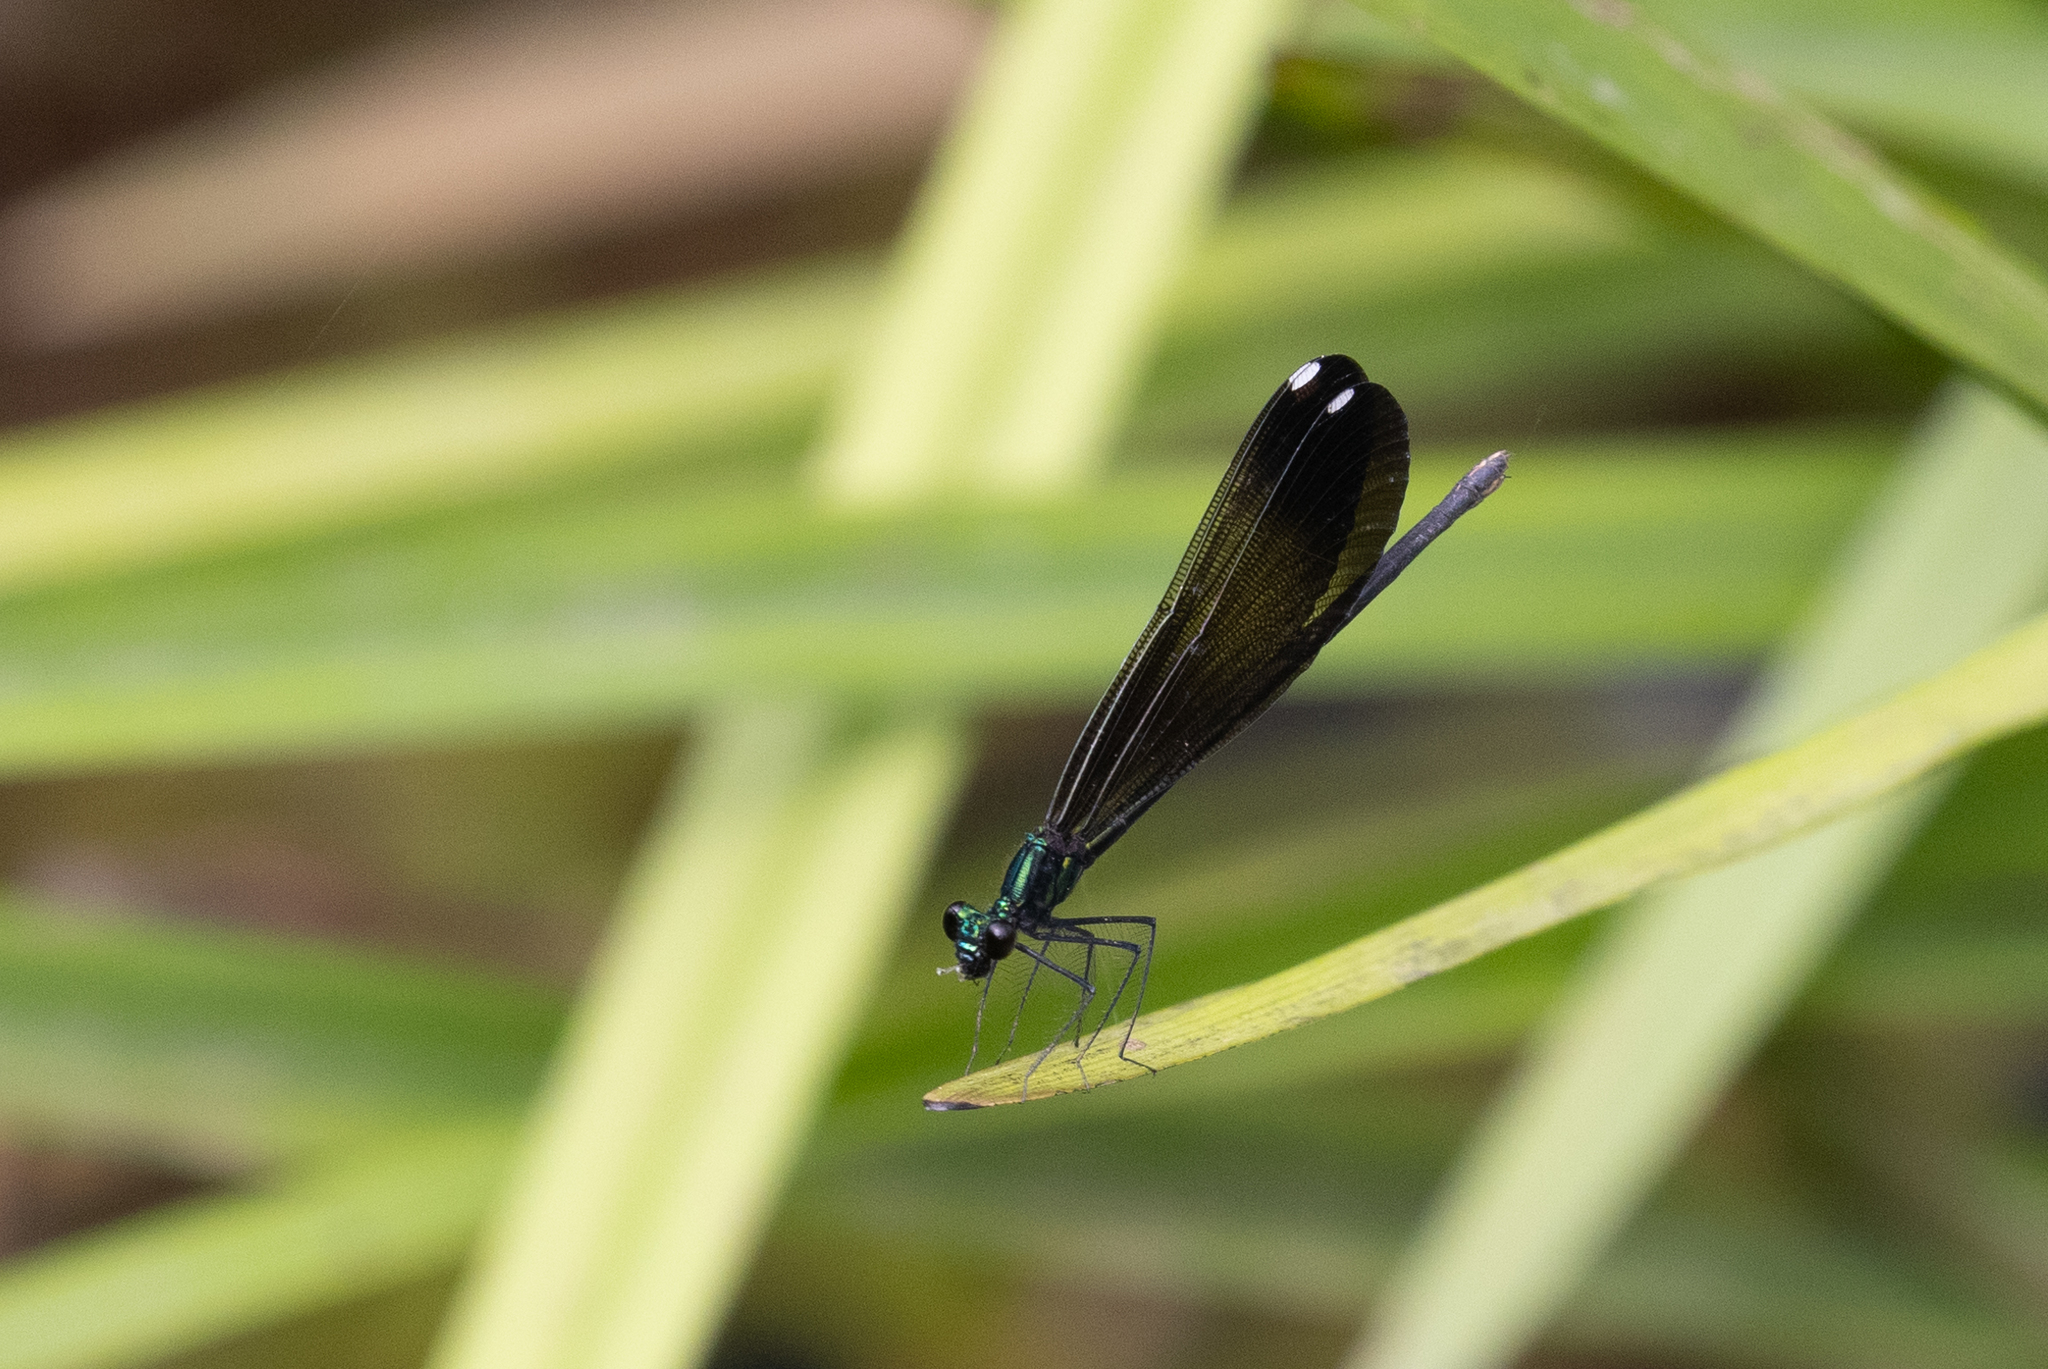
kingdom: Animalia
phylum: Arthropoda
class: Insecta
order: Odonata
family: Calopterygidae
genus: Calopteryx
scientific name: Calopteryx maculata
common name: Ebony jewelwing
